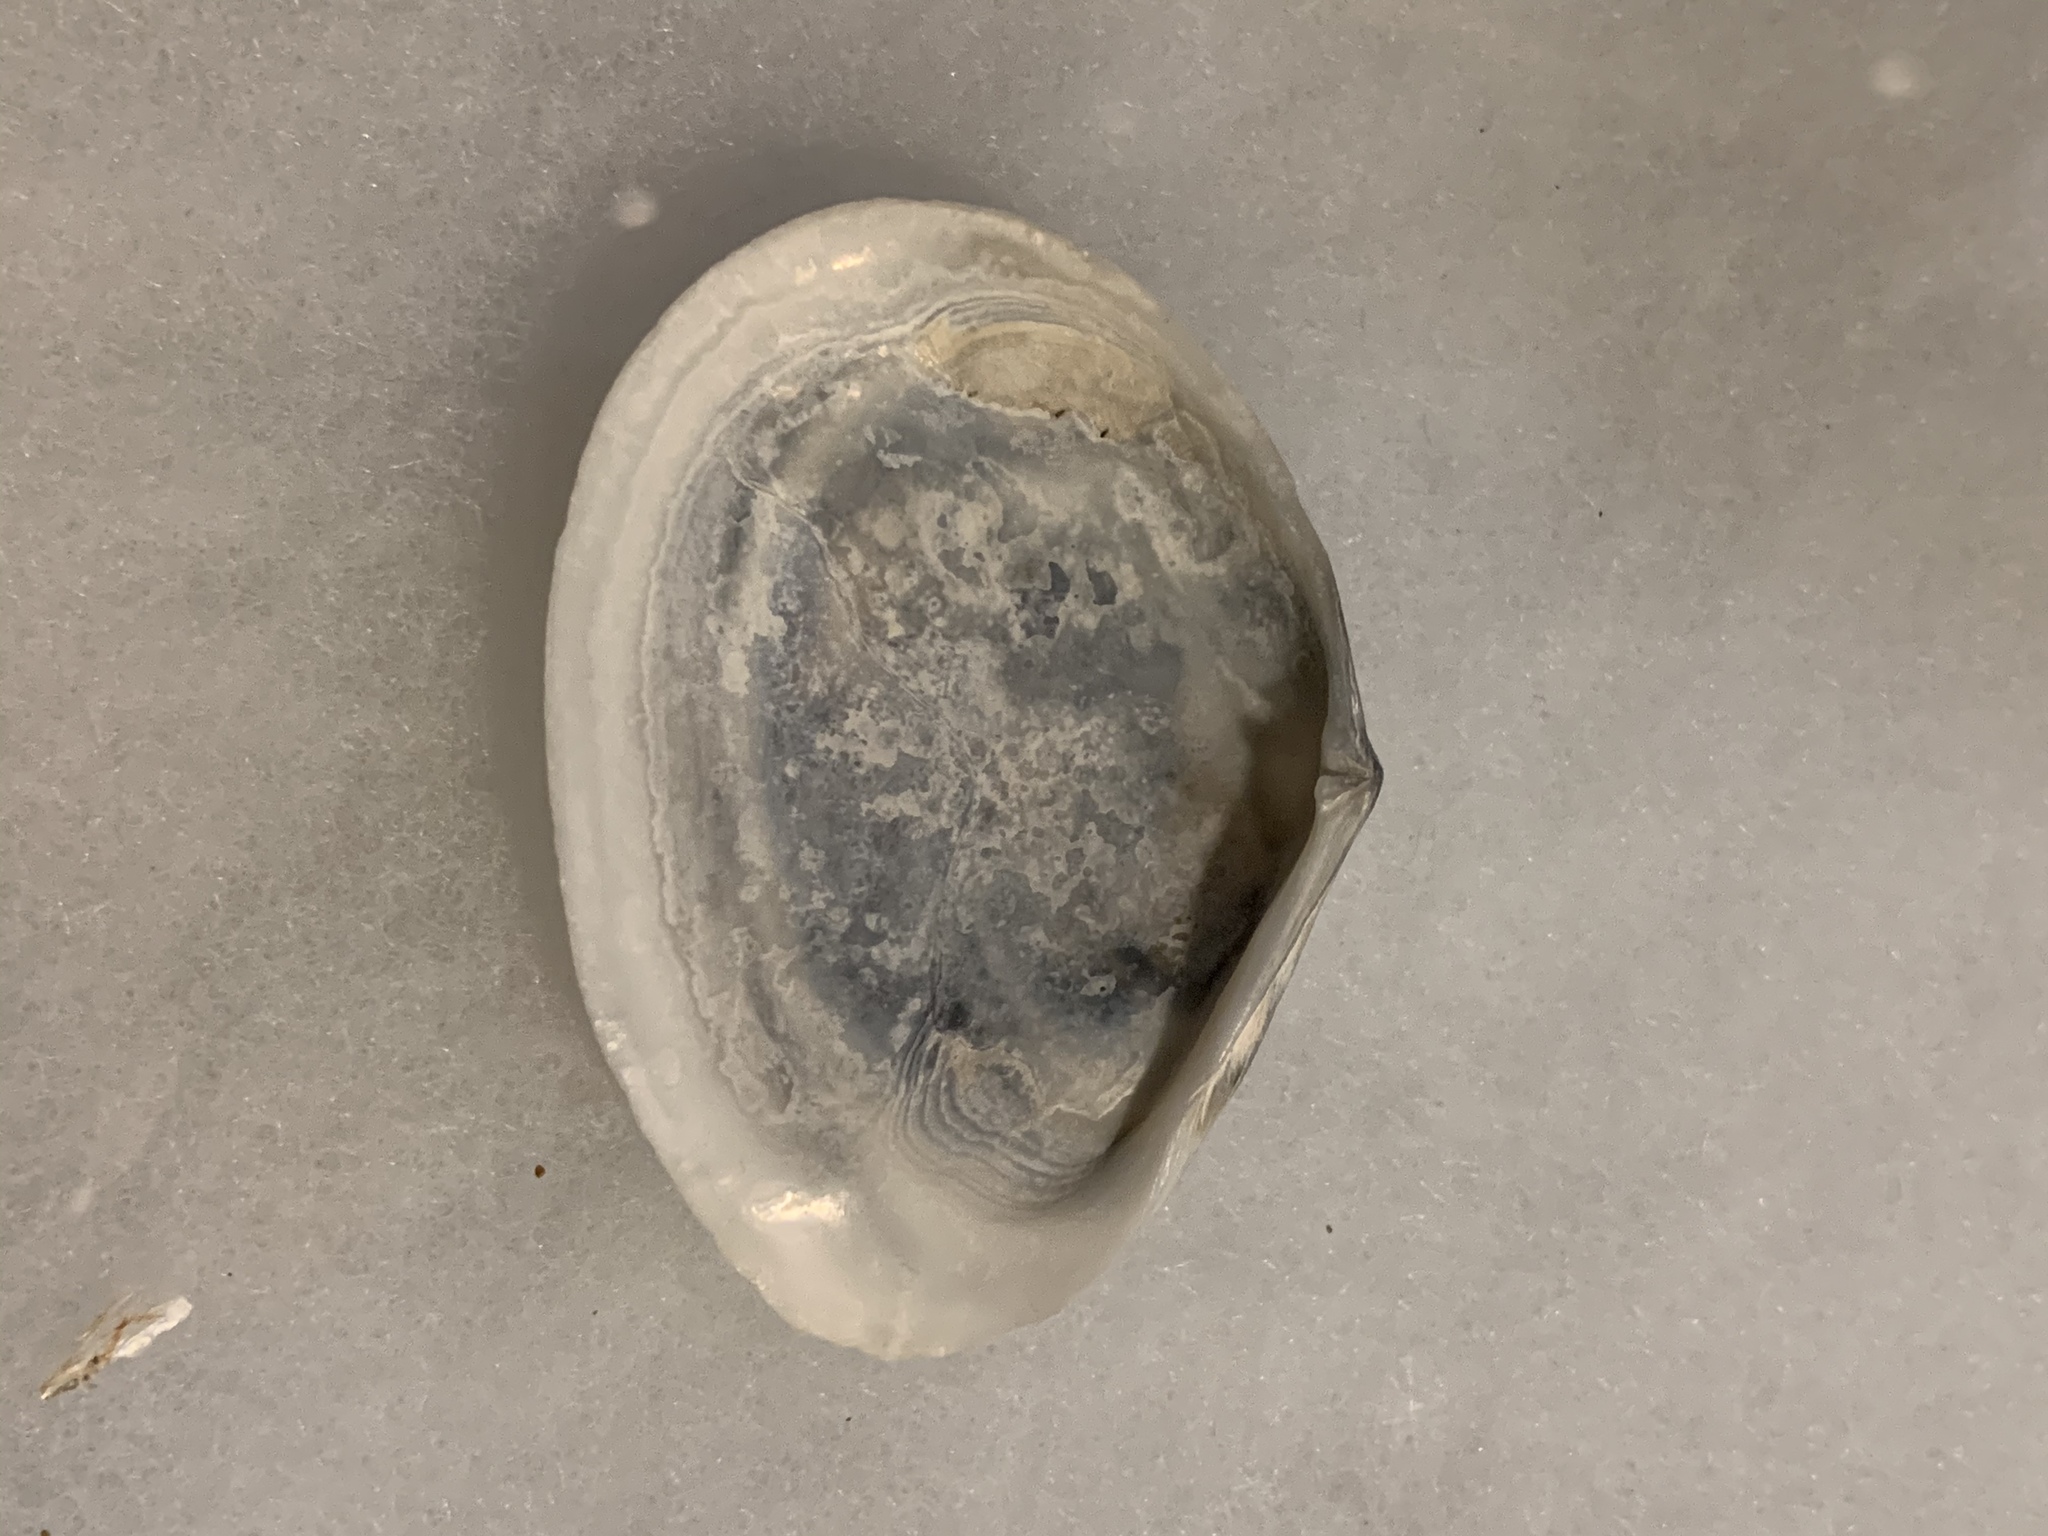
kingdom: Animalia
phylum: Mollusca
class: Bivalvia
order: Cardiida
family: Tellinidae
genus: Macoma
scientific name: Macoma nasuta
